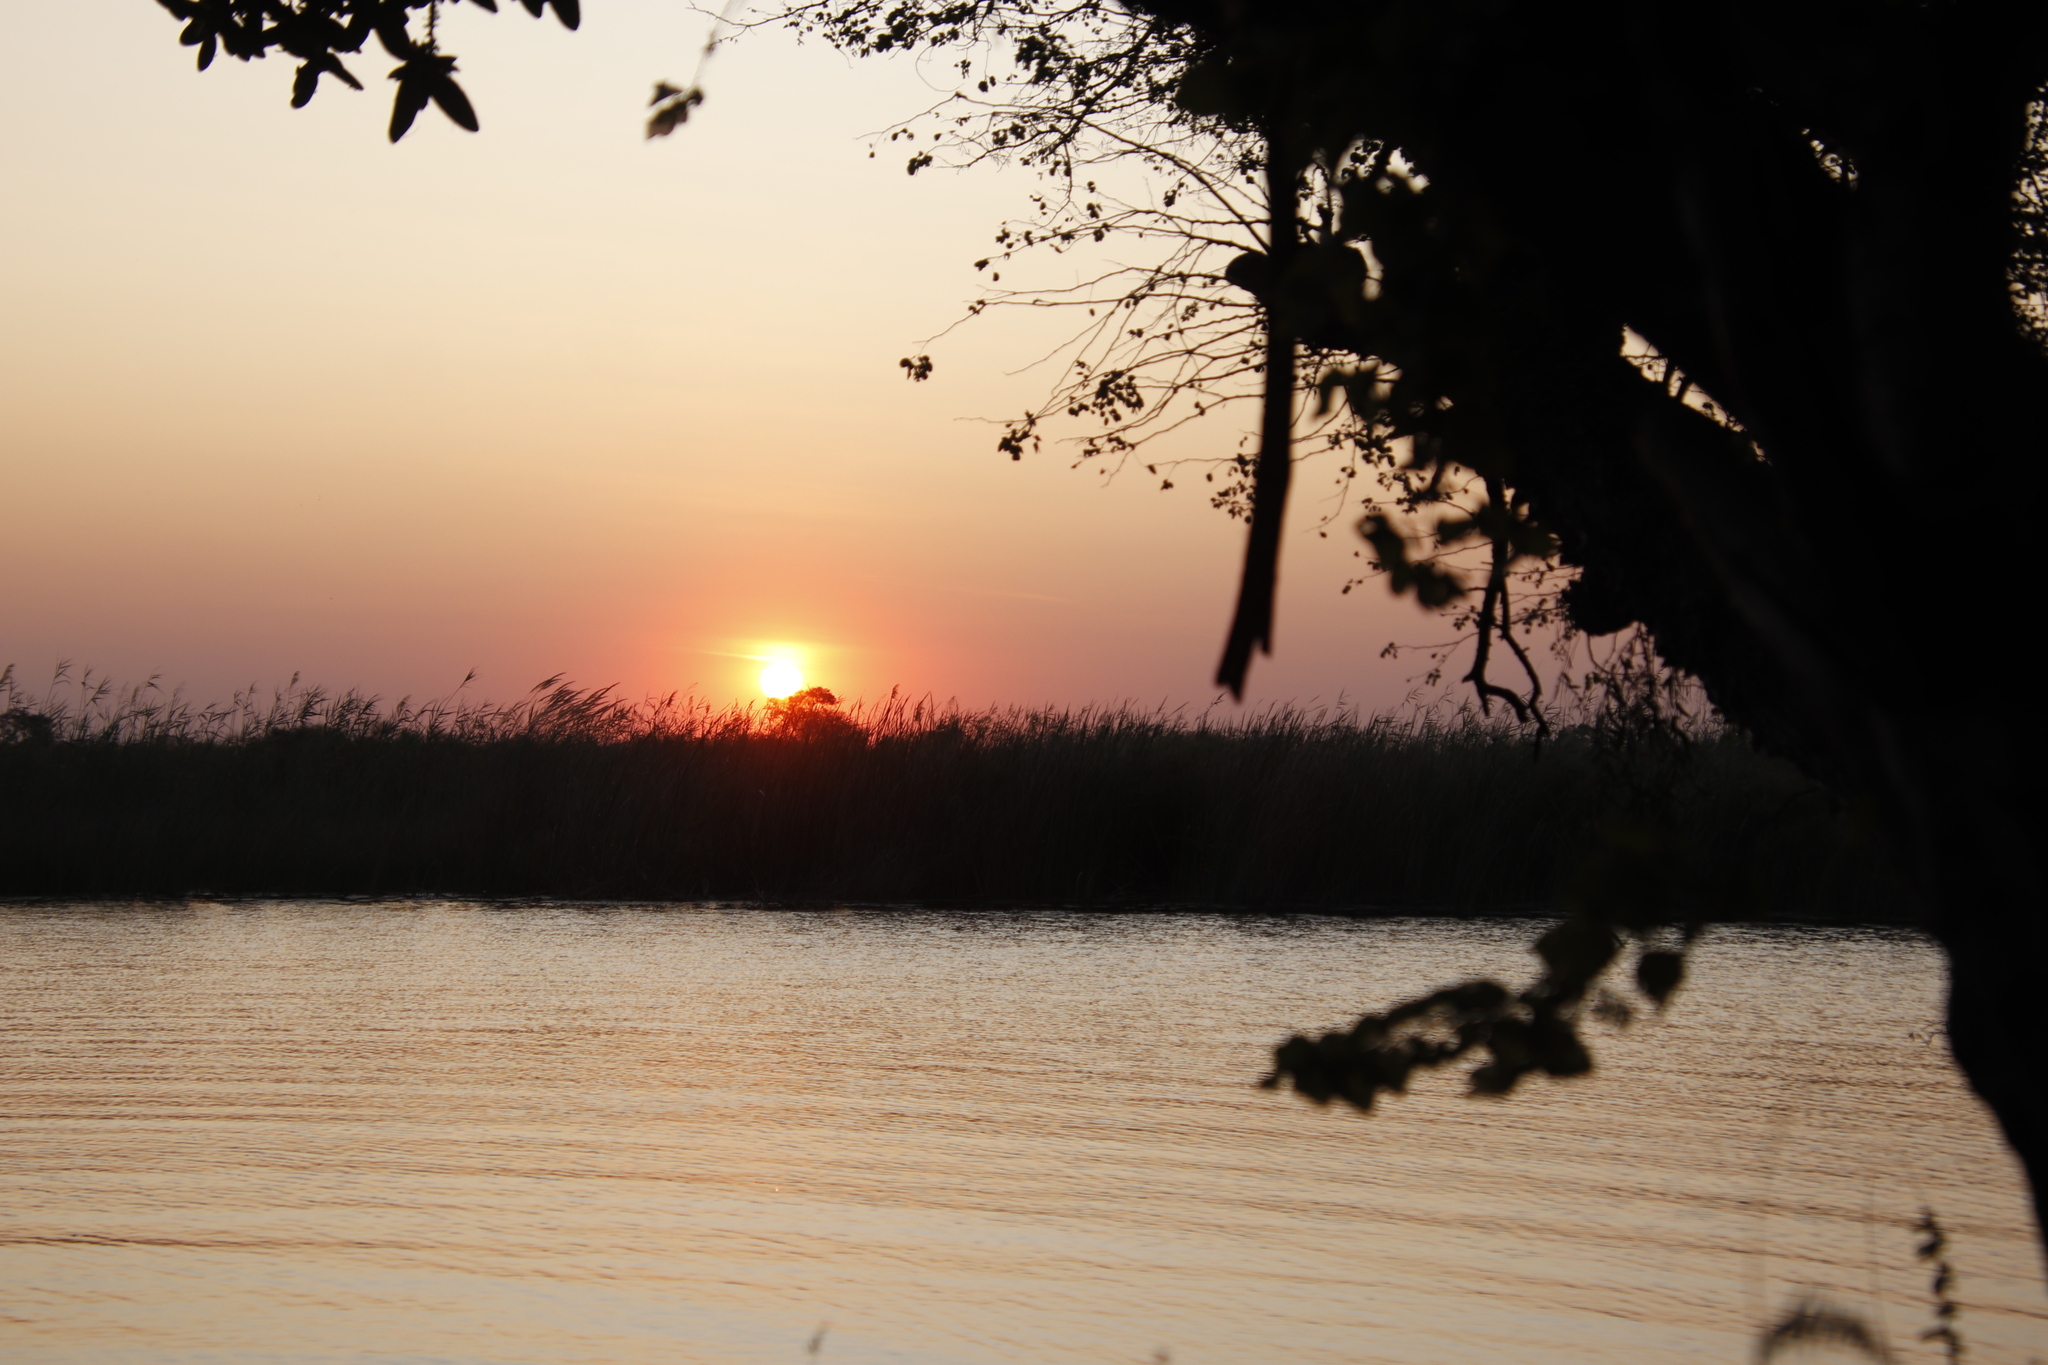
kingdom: Plantae
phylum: Tracheophyta
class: Liliopsida
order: Poales
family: Poaceae
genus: Phragmites
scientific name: Phragmites australis
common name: Common reed
